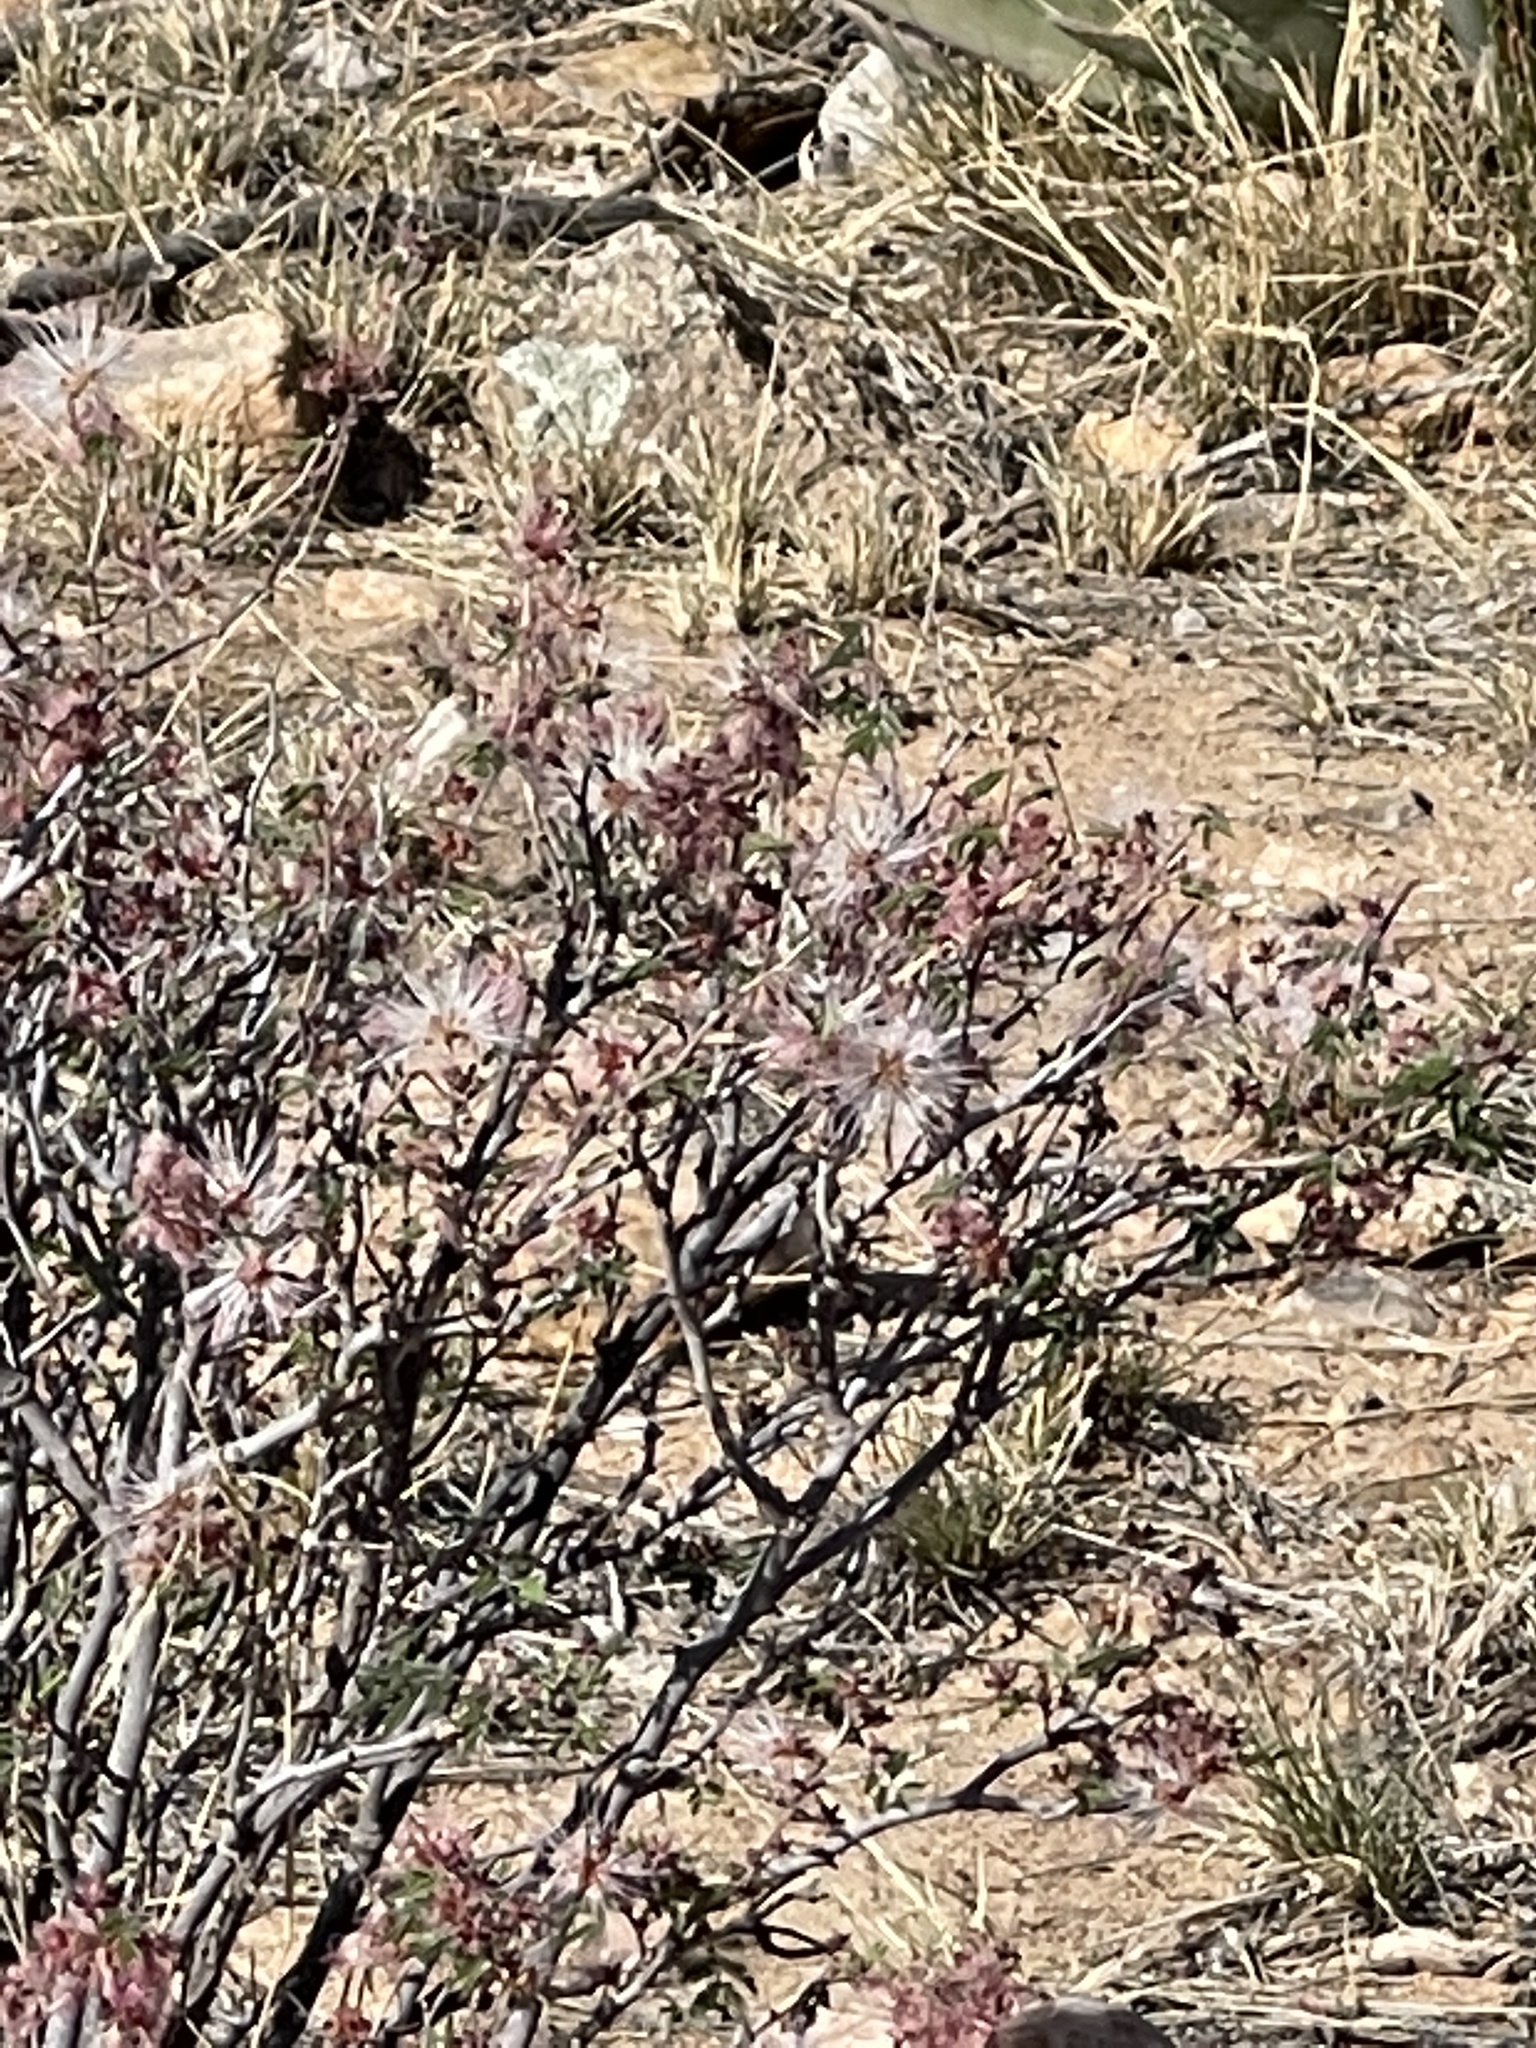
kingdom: Plantae
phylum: Tracheophyta
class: Magnoliopsida
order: Fabales
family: Fabaceae
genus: Calliandra
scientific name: Calliandra eriophylla
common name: Fairy-duster
